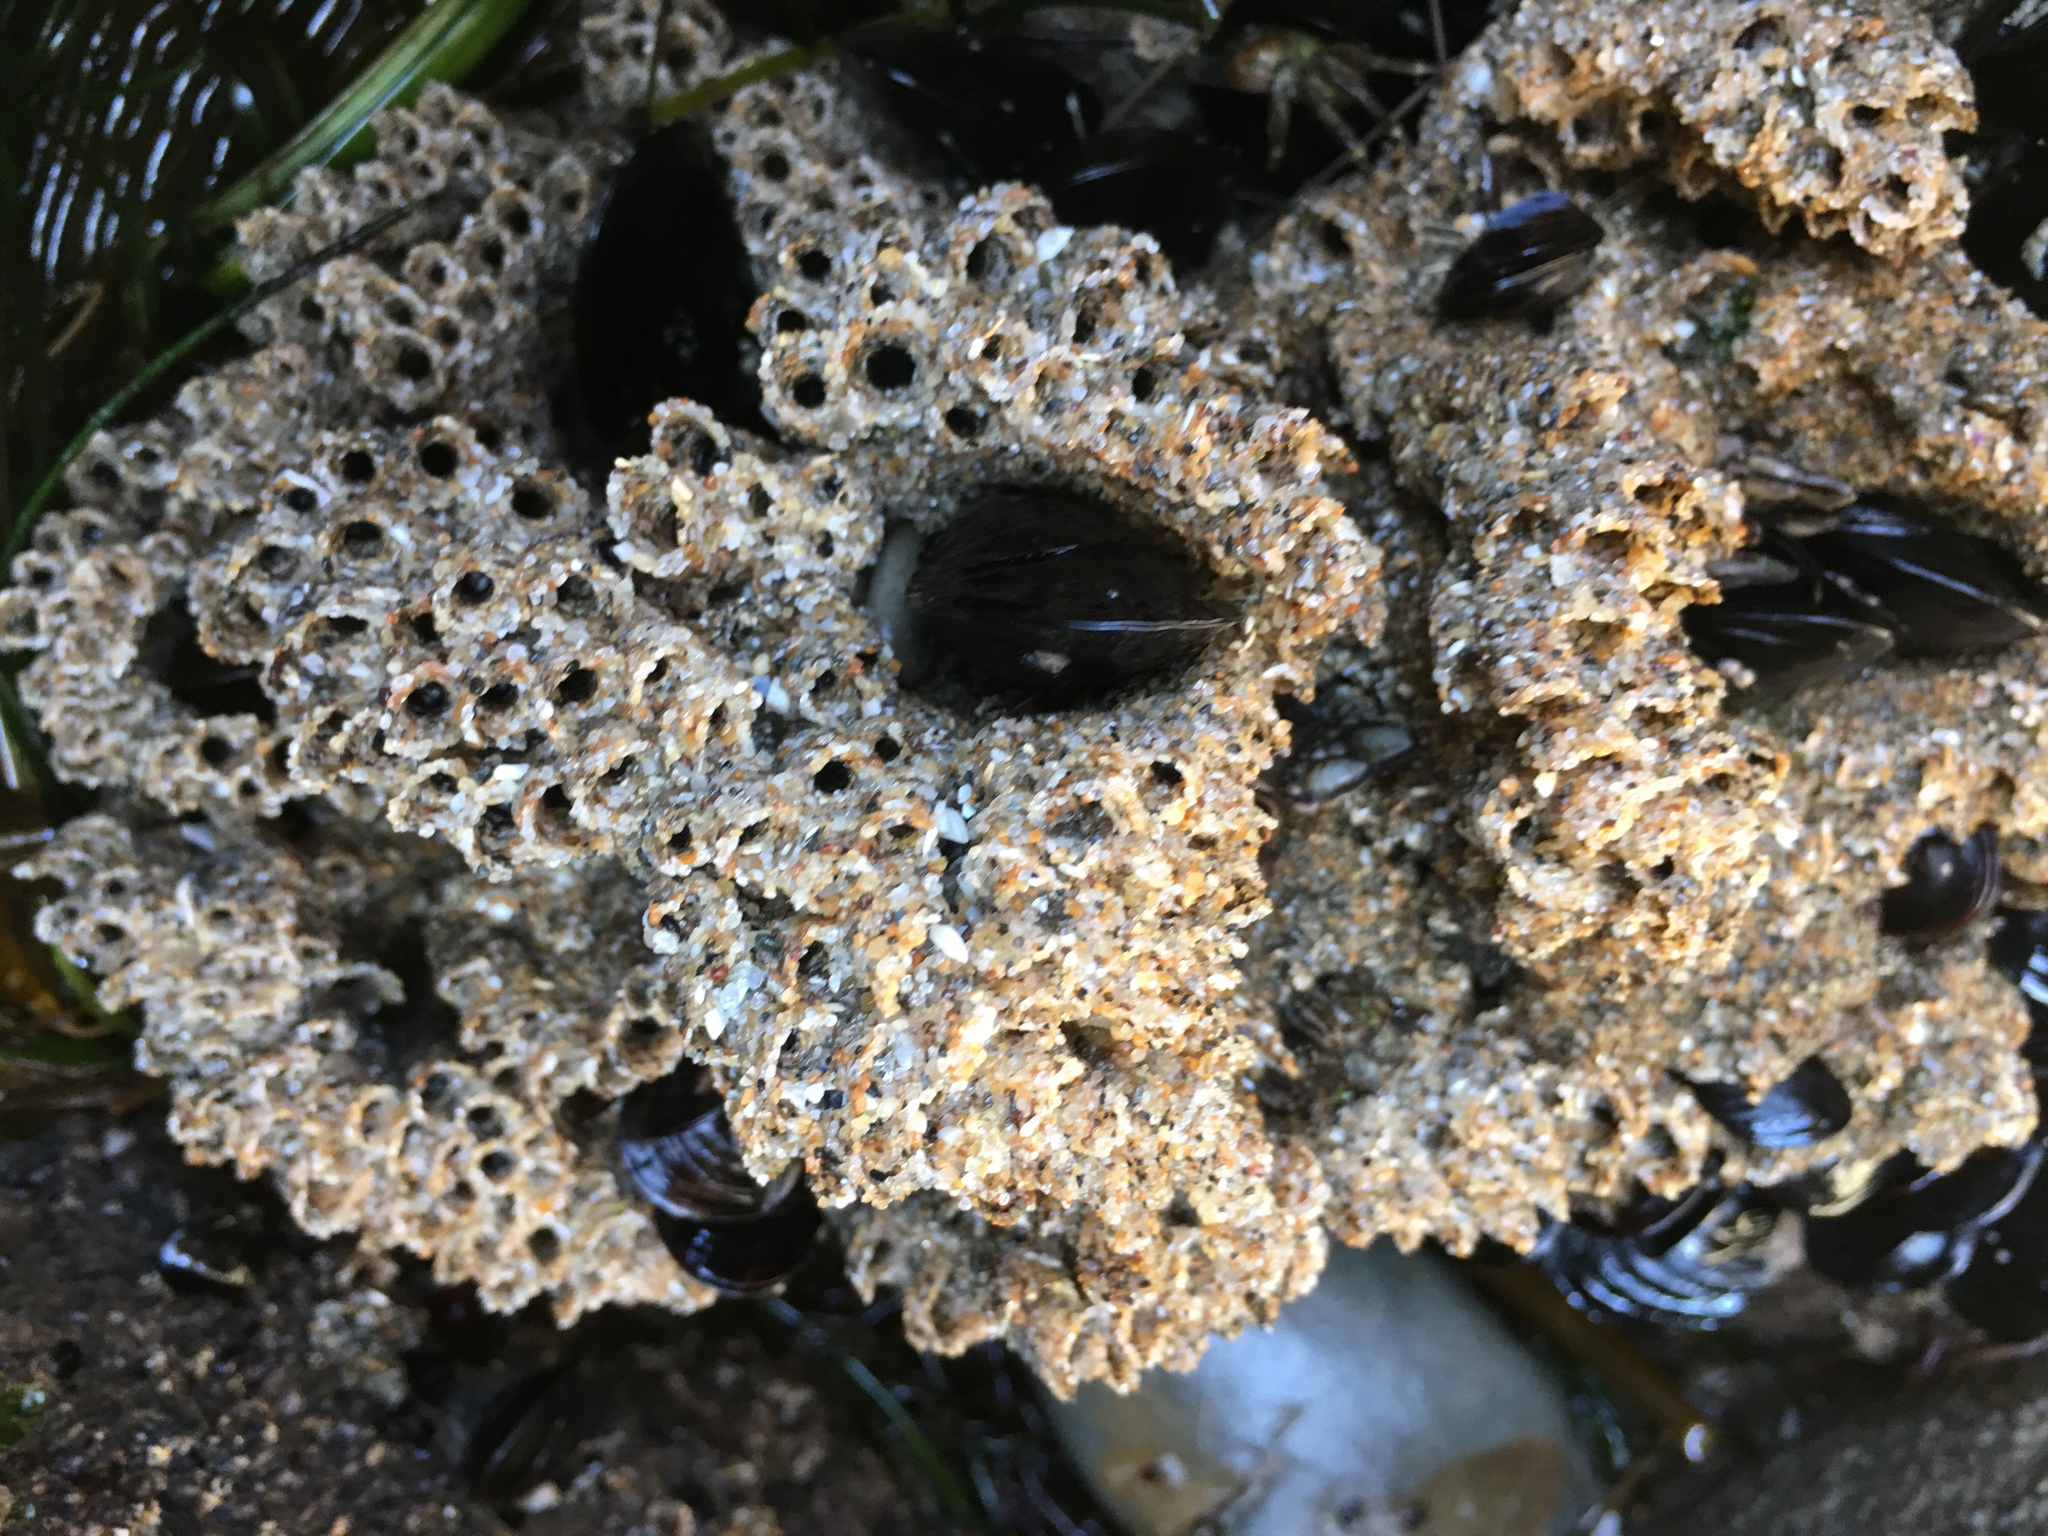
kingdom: Animalia
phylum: Annelida
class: Polychaeta
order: Sabellida
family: Sabellariidae
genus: Phragmatopoma
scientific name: Phragmatopoma californica
